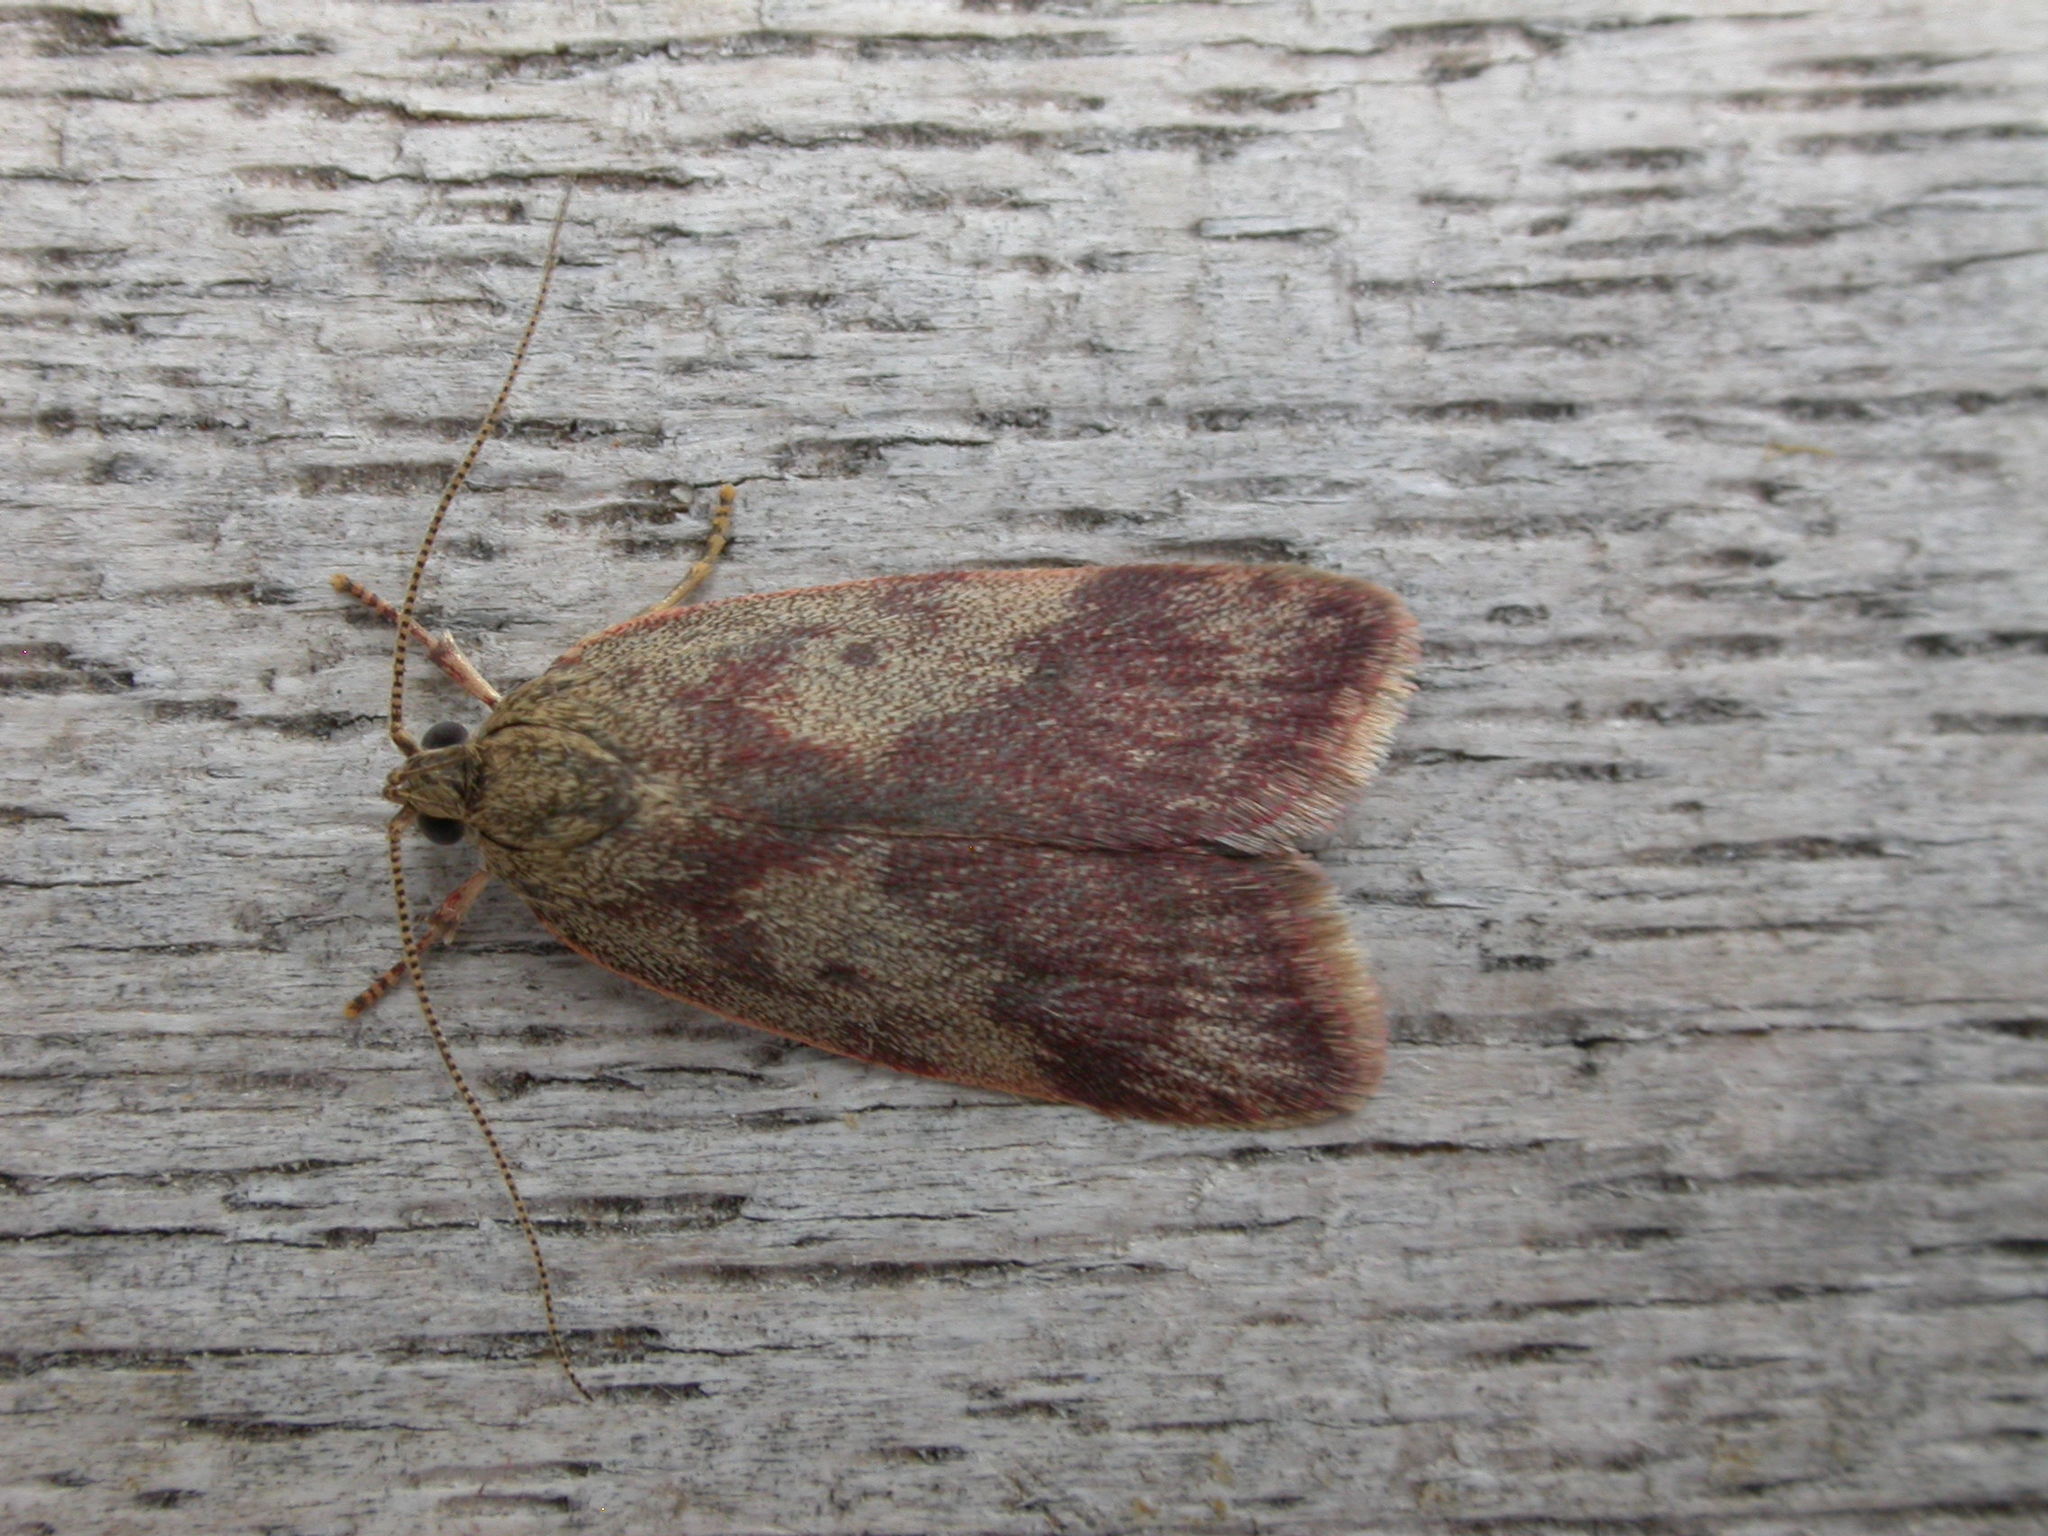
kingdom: Animalia
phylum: Arthropoda
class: Insecta
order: Lepidoptera
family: Oecophoridae
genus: Garrha
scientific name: Garrha absumptella
